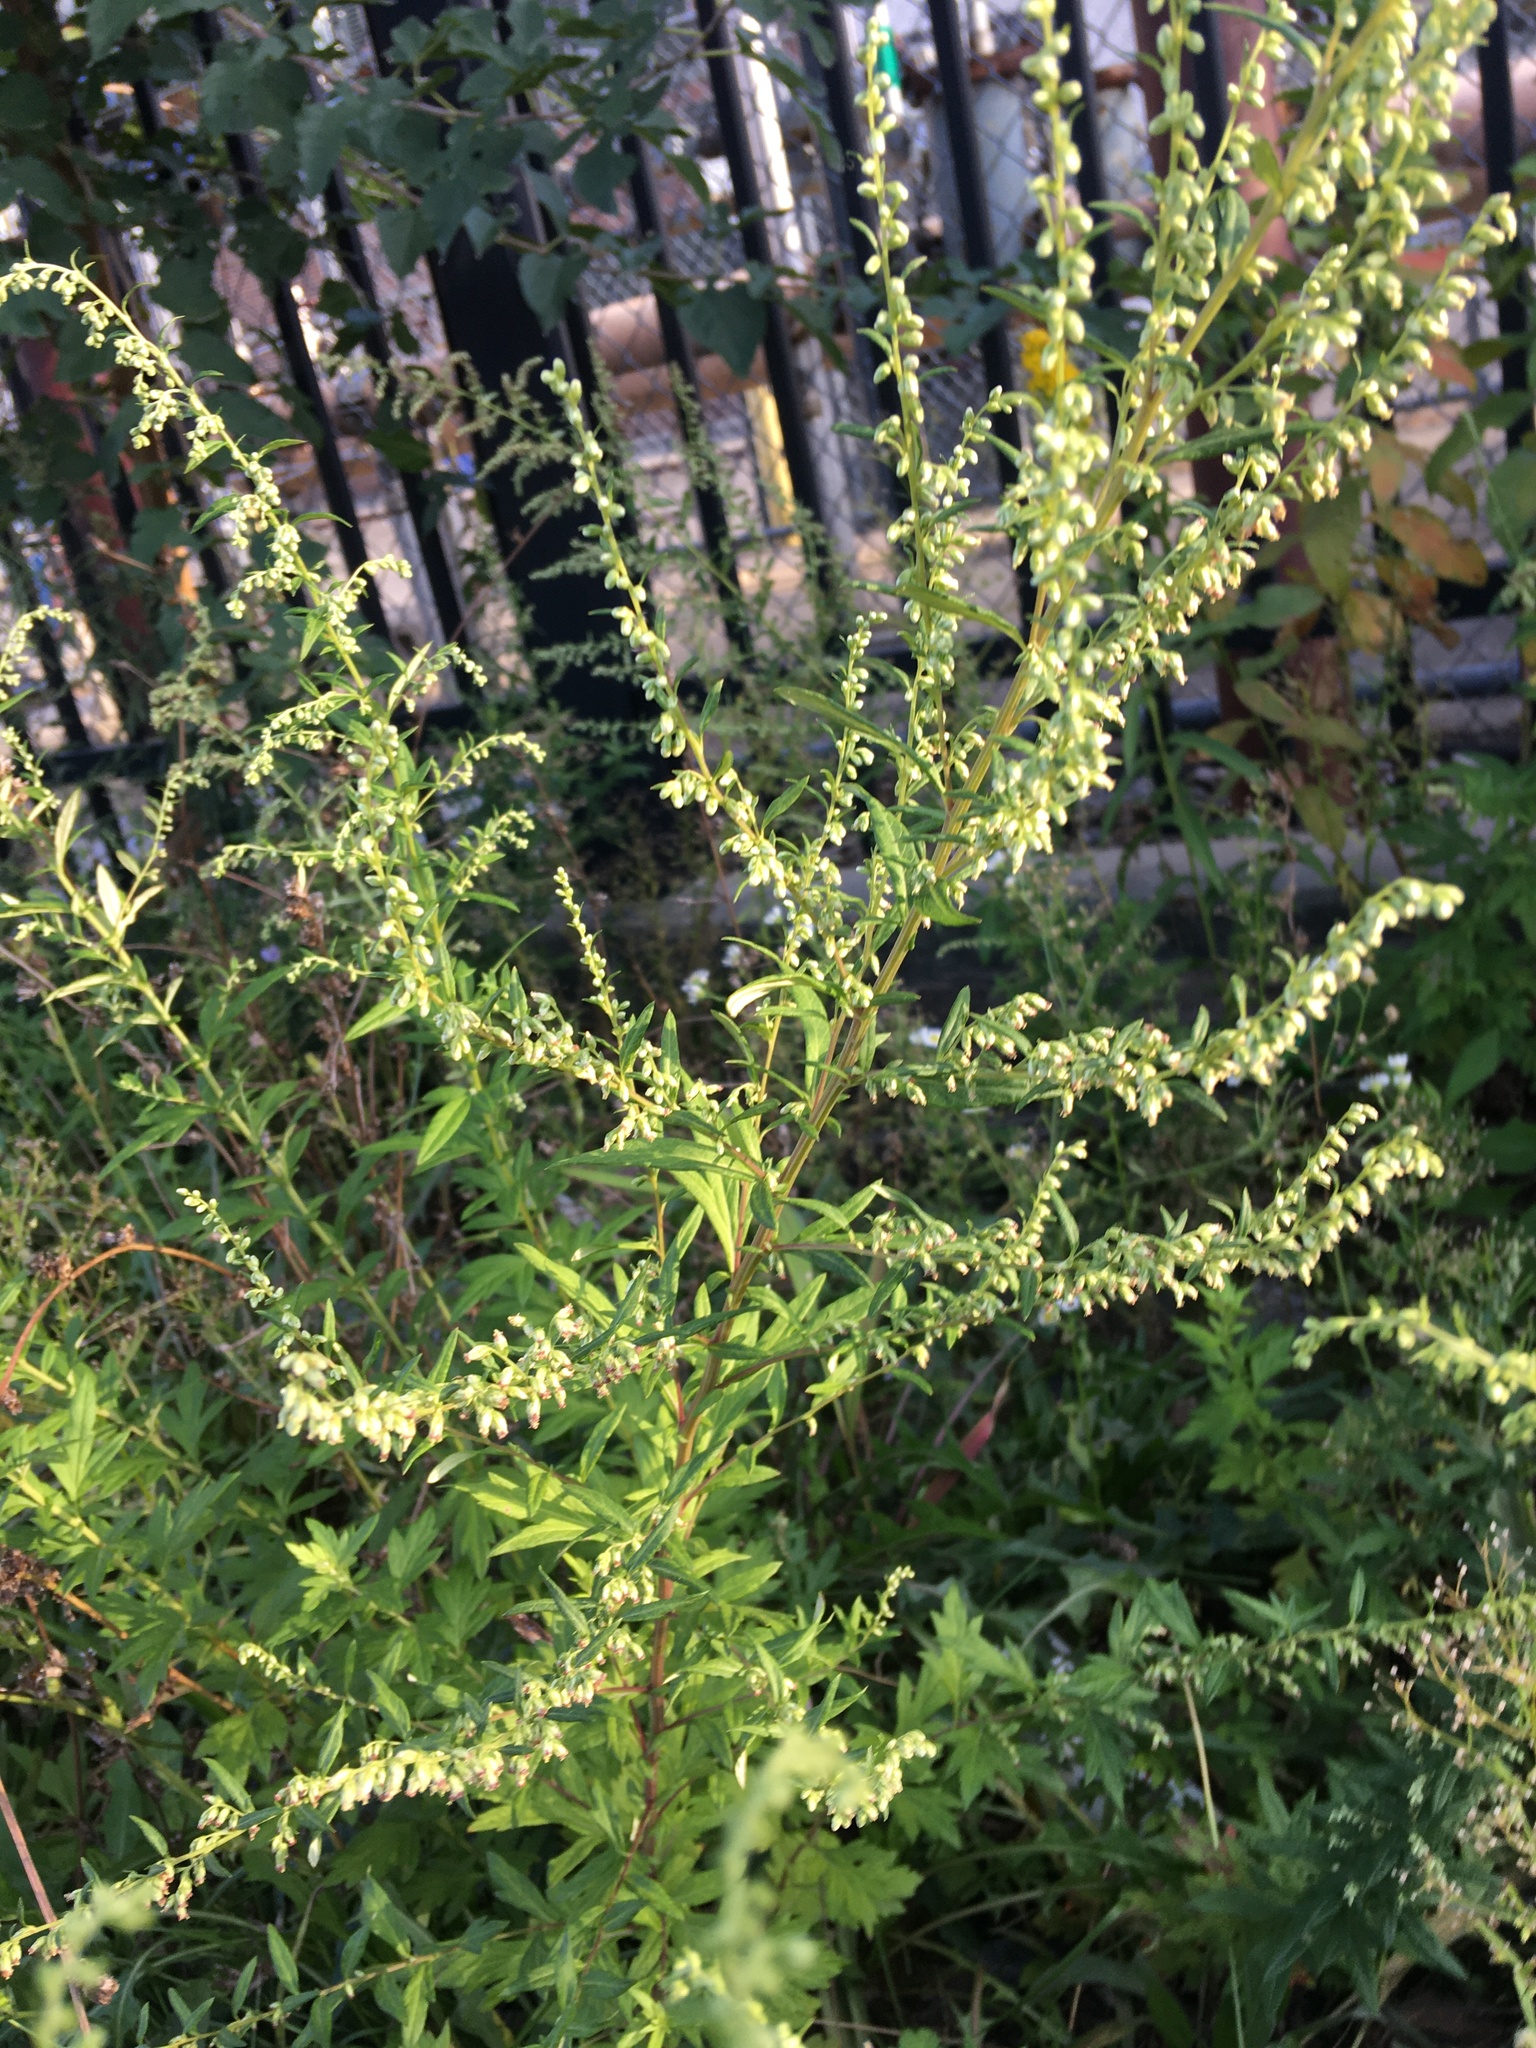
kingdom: Plantae
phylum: Tracheophyta
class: Magnoliopsida
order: Asterales
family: Asteraceae
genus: Artemisia
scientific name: Artemisia vulgaris
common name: Mugwort
